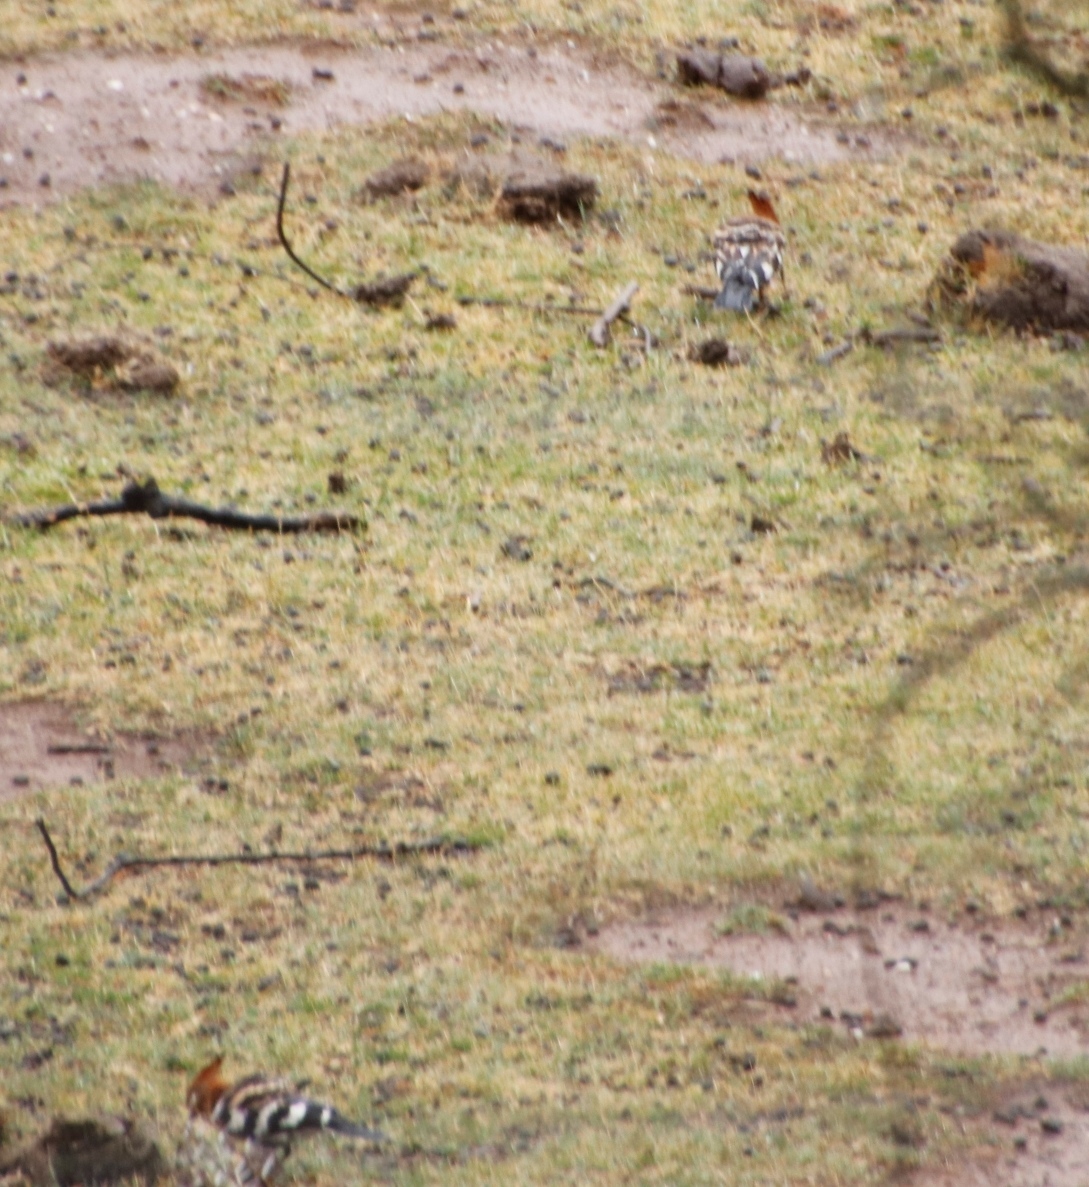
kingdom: Animalia
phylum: Chordata
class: Aves
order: Bucerotiformes
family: Upupidae
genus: Upupa
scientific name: Upupa africana
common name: African hoopoe
